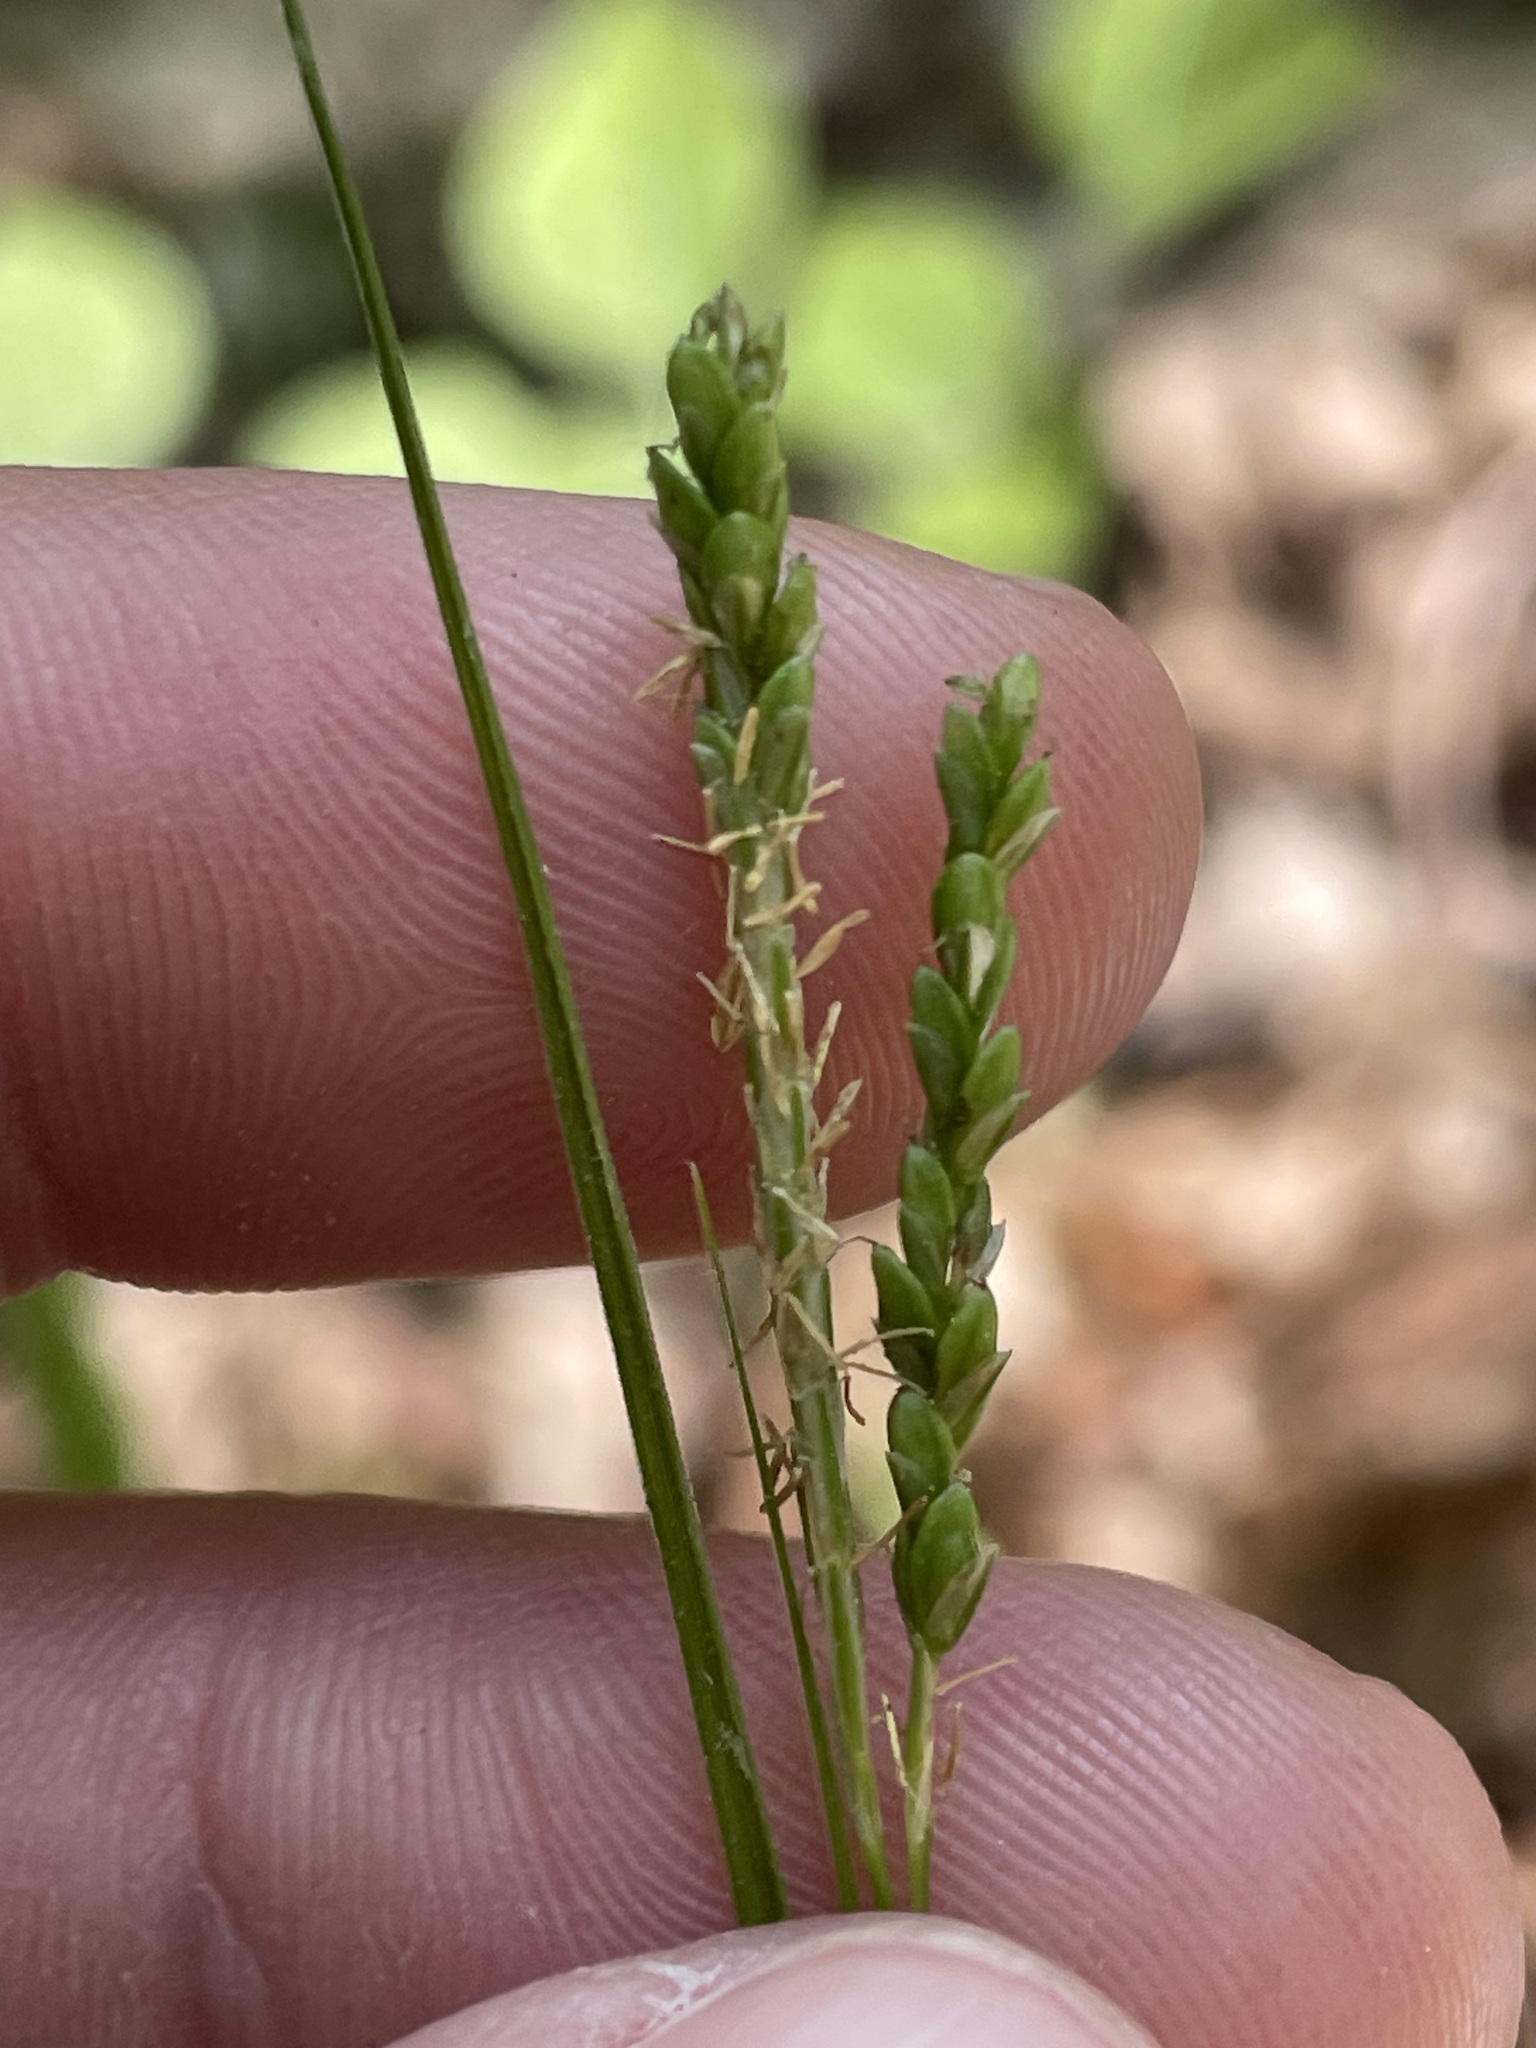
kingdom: Plantae
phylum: Tracheophyta
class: Liliopsida
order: Poales
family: Cyperaceae
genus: Carex
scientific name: Carex gracillima
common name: Graceful sedge
